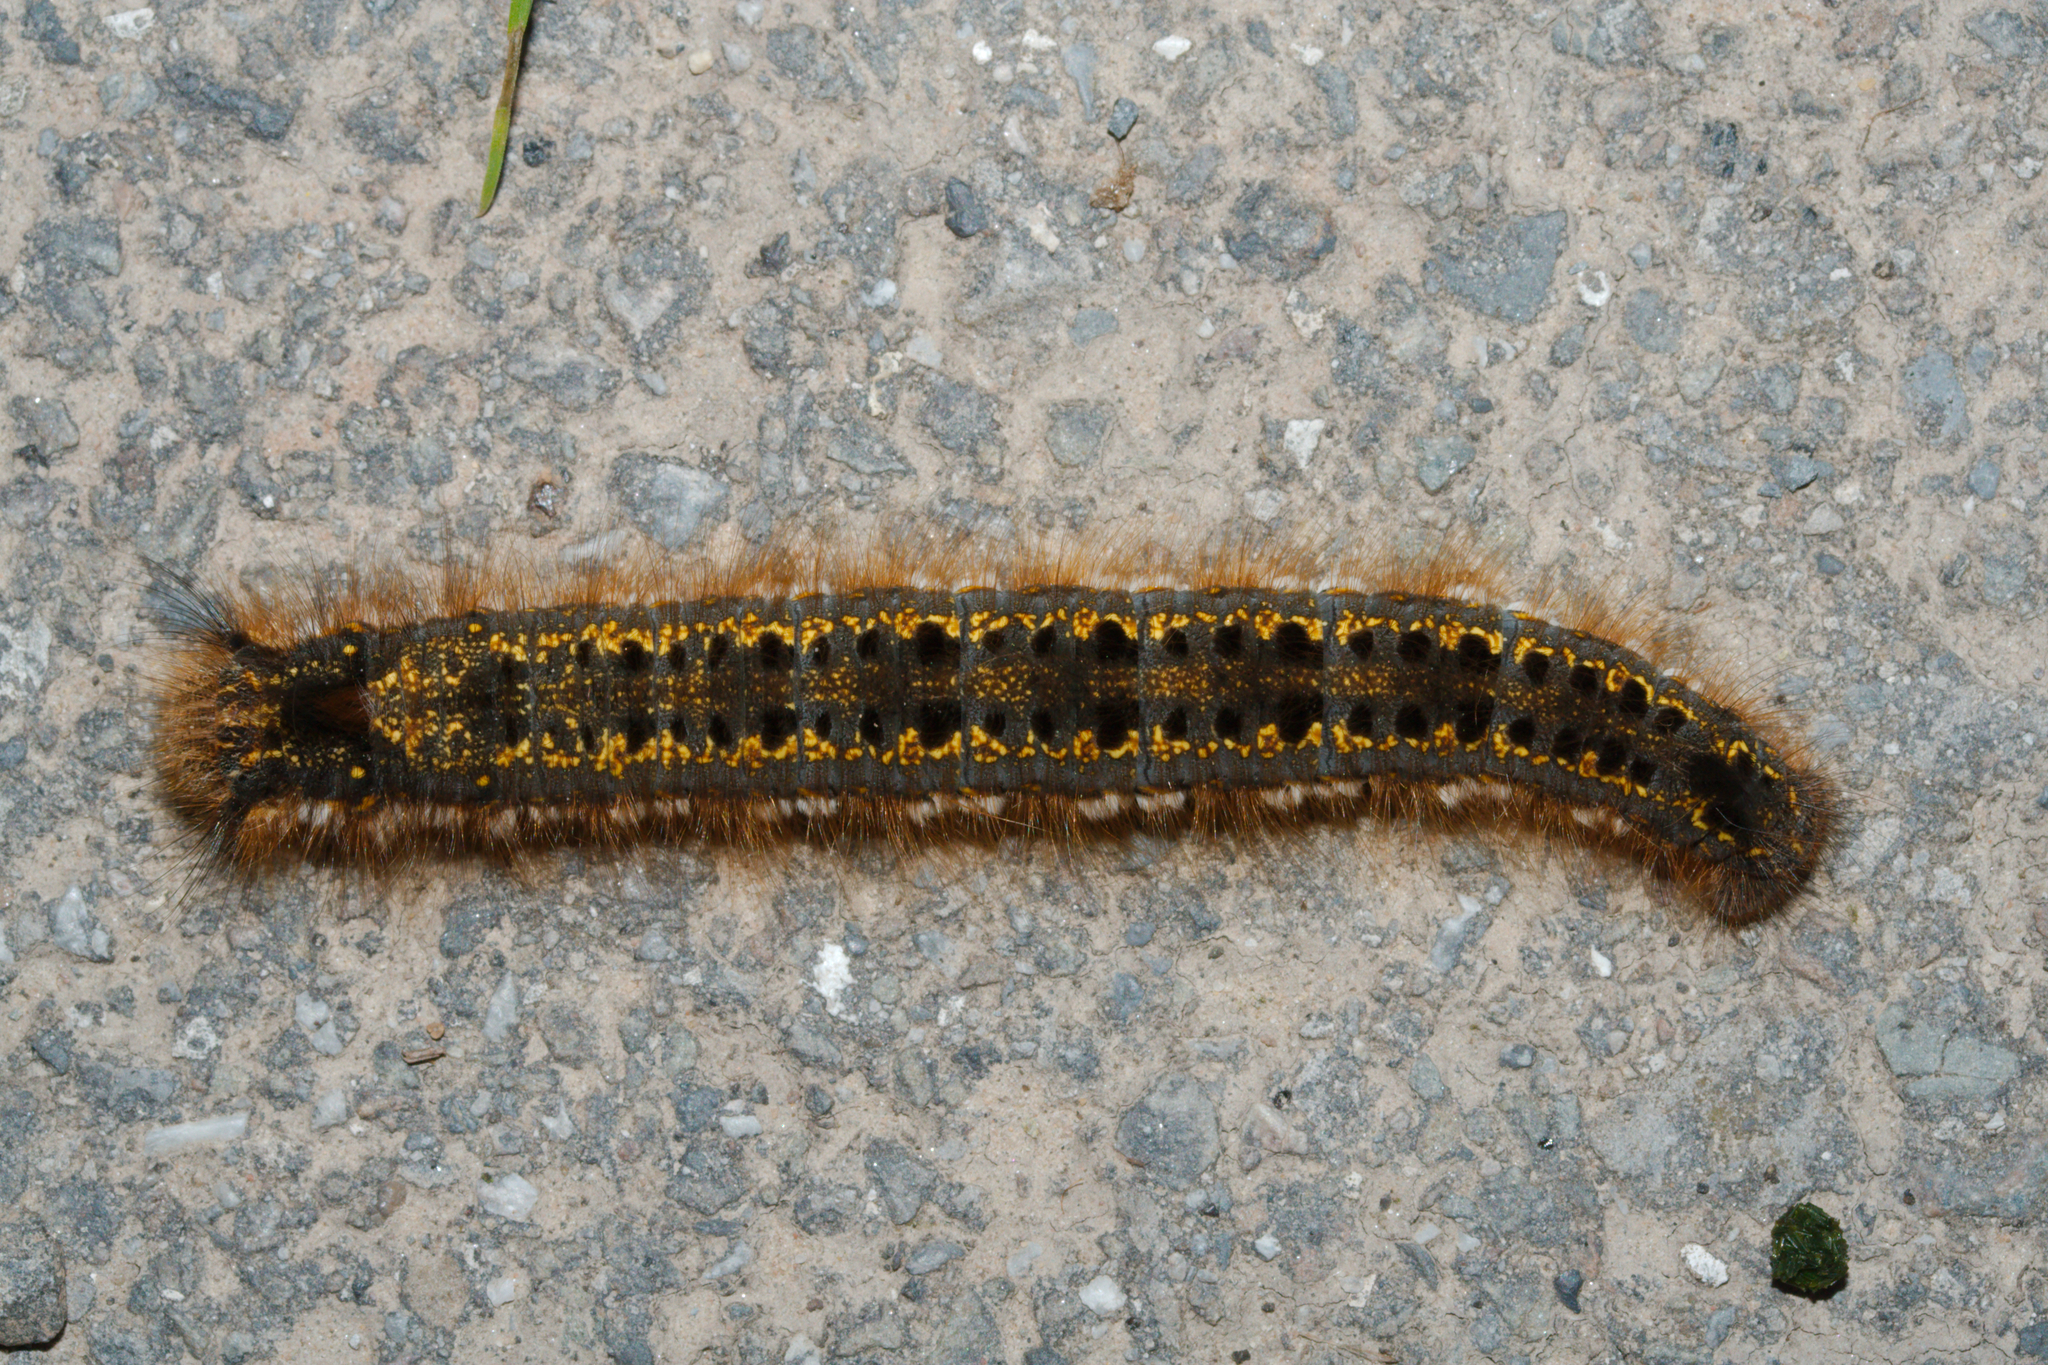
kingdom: Animalia
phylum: Arthropoda
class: Insecta
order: Lepidoptera
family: Lasiocampidae
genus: Euthrix
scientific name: Euthrix potatoria
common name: Drinker
